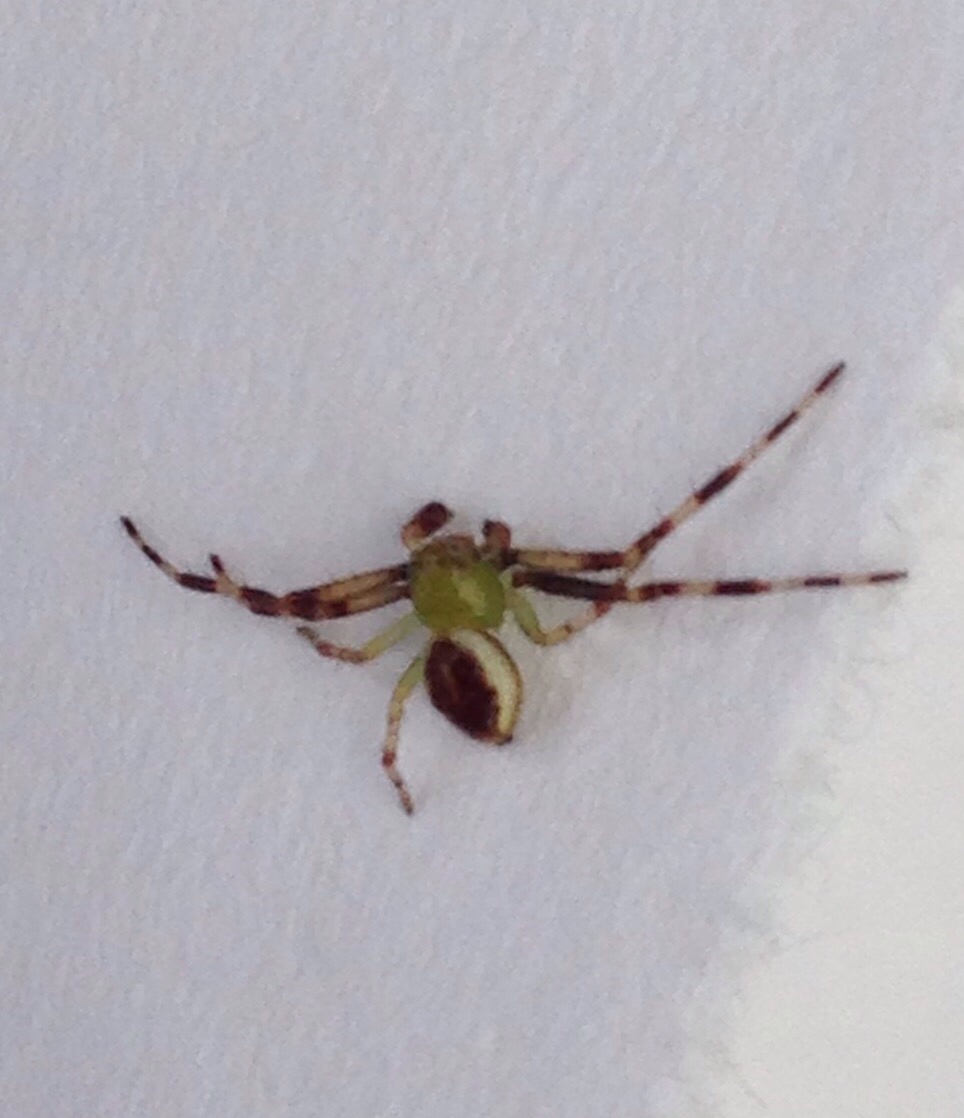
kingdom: Animalia
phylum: Arthropoda
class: Arachnida
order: Araneae
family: Thomisidae
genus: Australomisidia
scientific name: Australomisidia pilula
